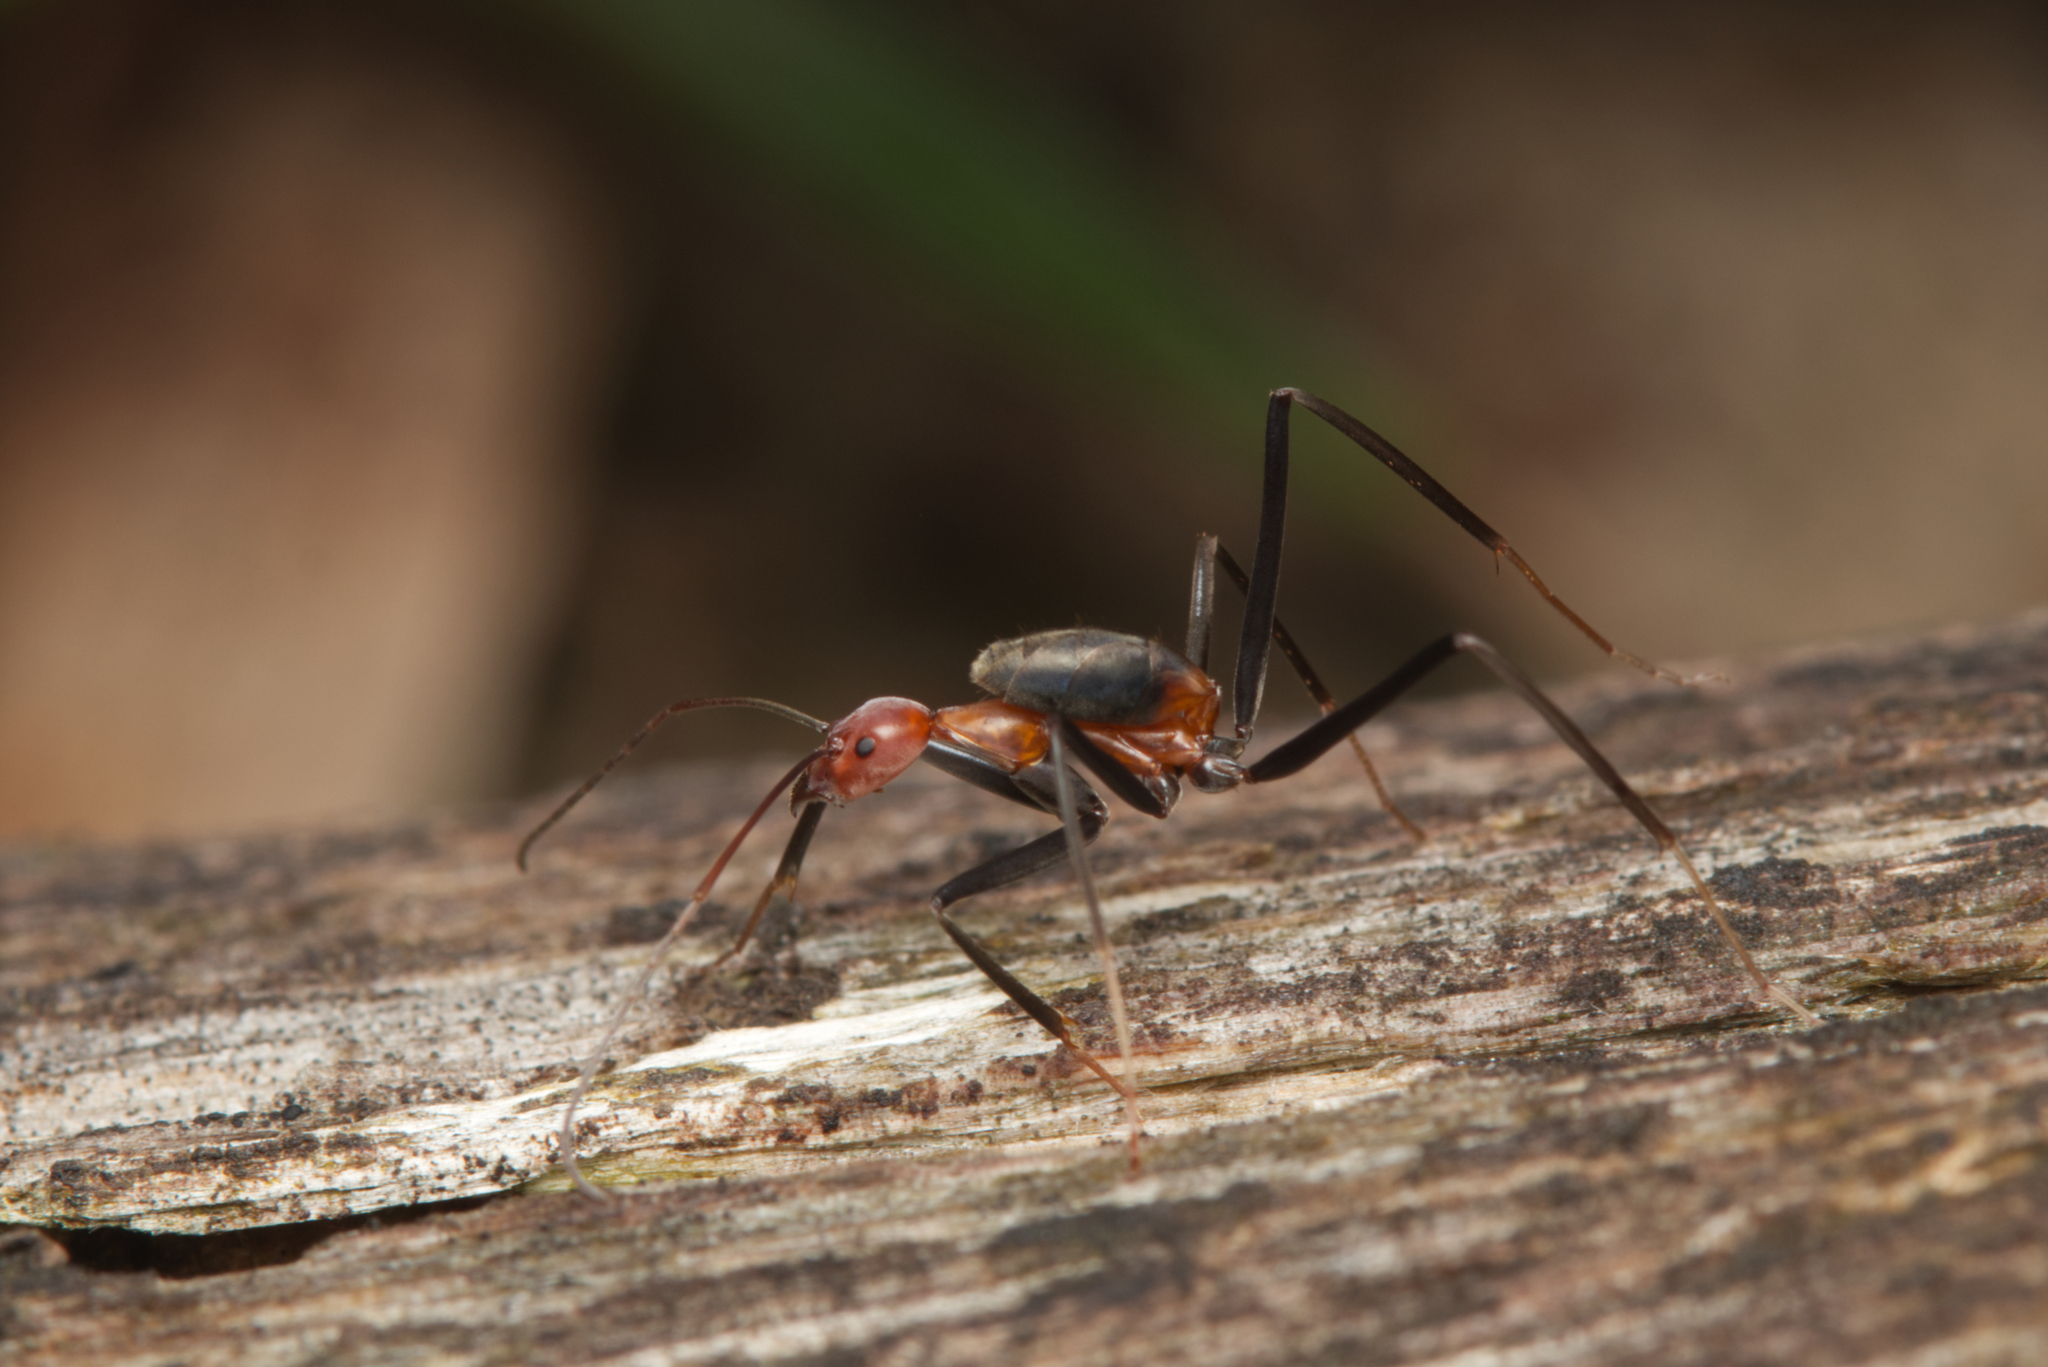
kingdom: Animalia
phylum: Arthropoda
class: Insecta
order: Hymenoptera
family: Formicidae
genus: Leptomyrmex
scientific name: Leptomyrmex rufithorax
